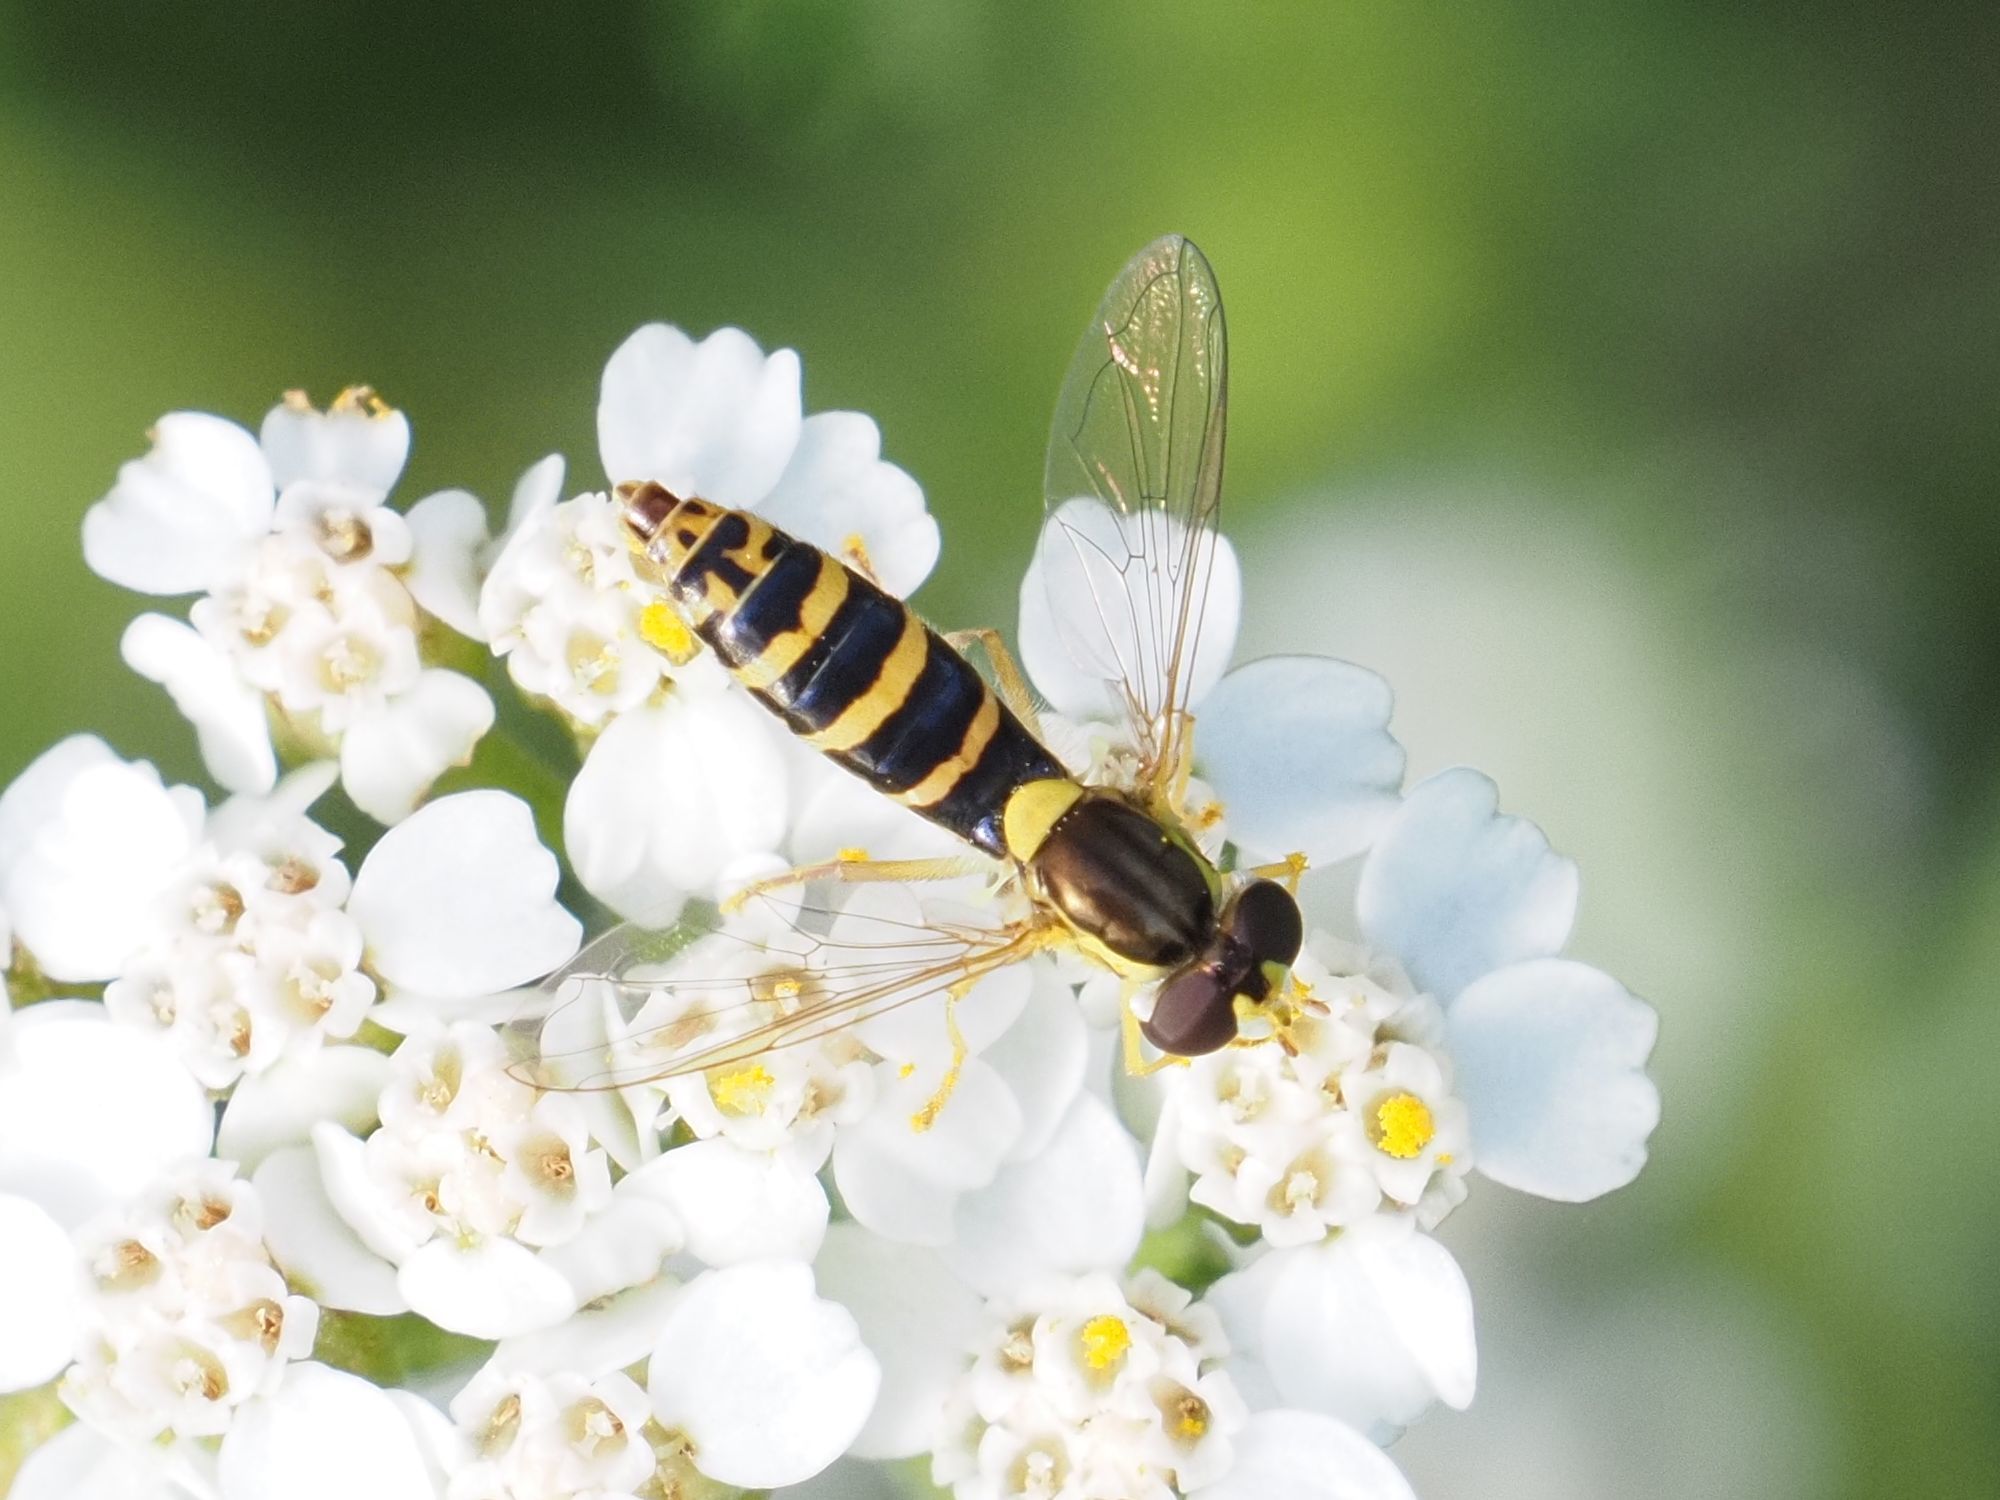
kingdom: Animalia
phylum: Arthropoda
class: Insecta
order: Diptera
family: Syrphidae
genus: Sphaerophoria
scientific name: Sphaerophoria
